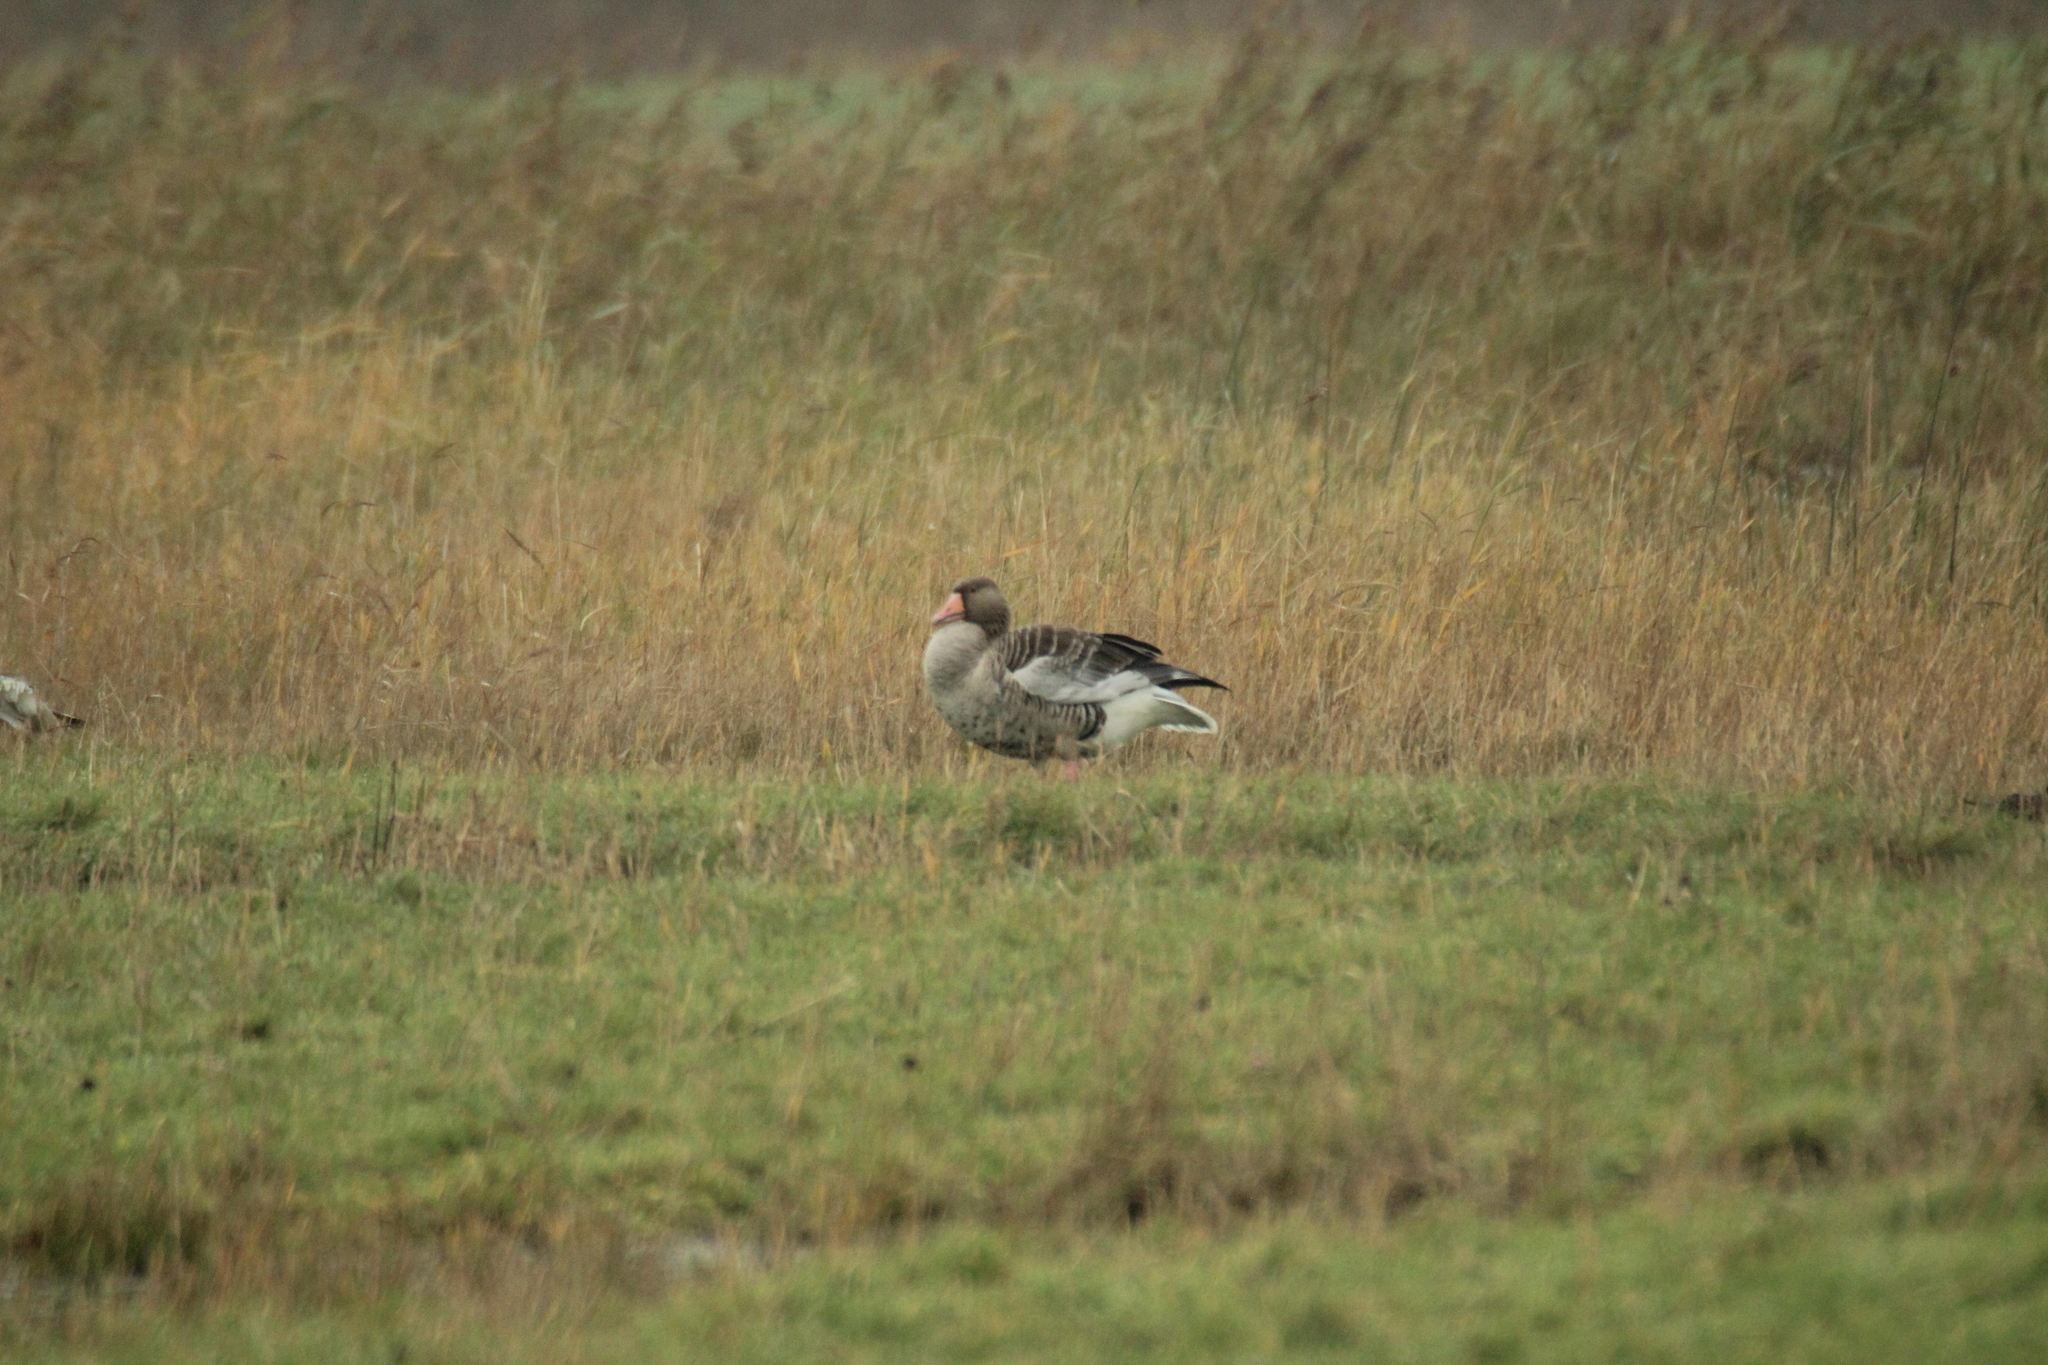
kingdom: Animalia
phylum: Chordata
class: Aves
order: Anseriformes
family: Anatidae
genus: Anser
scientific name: Anser anser
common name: Greylag goose
